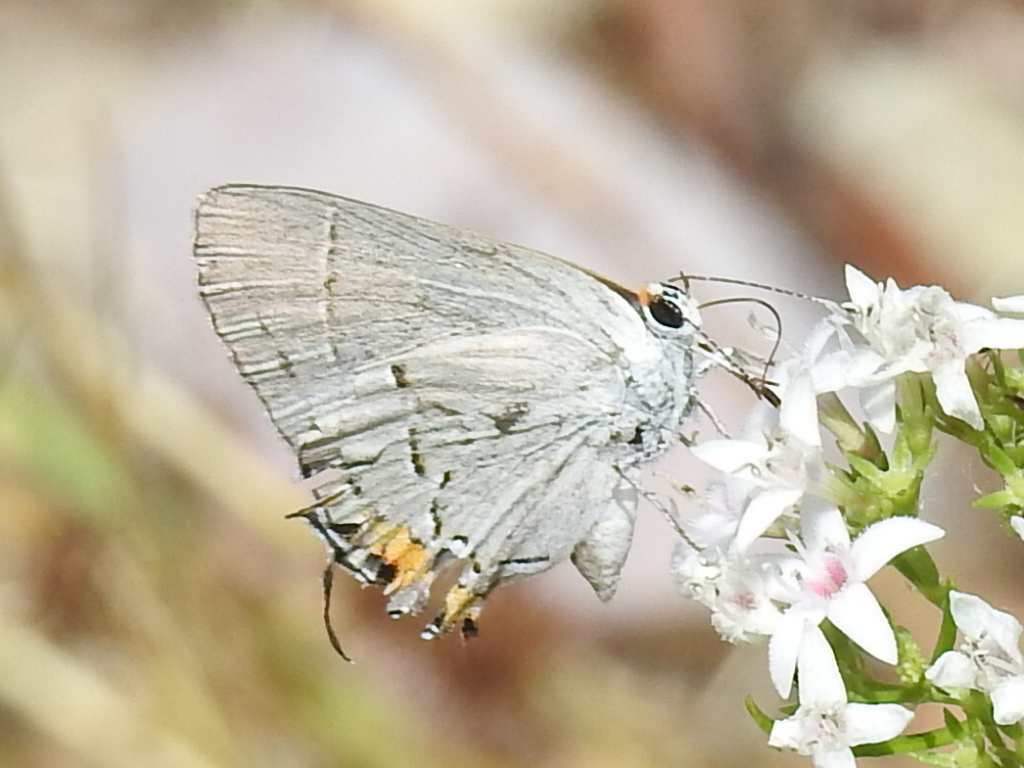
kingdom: Animalia
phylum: Arthropoda
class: Insecta
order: Lepidoptera
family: Lycaenidae
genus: Strymon
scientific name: Strymon melinus
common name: Gray hairstreak
